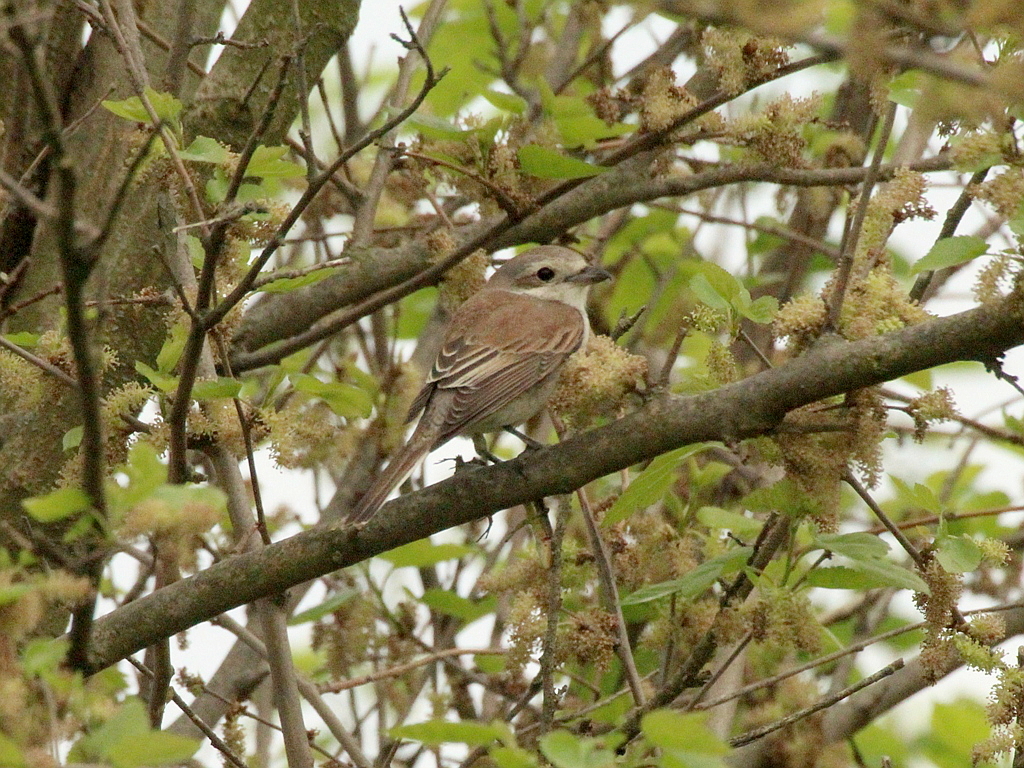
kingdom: Animalia
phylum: Chordata
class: Aves
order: Passeriformes
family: Laniidae
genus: Lanius
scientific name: Lanius collurio
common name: Red-backed shrike
